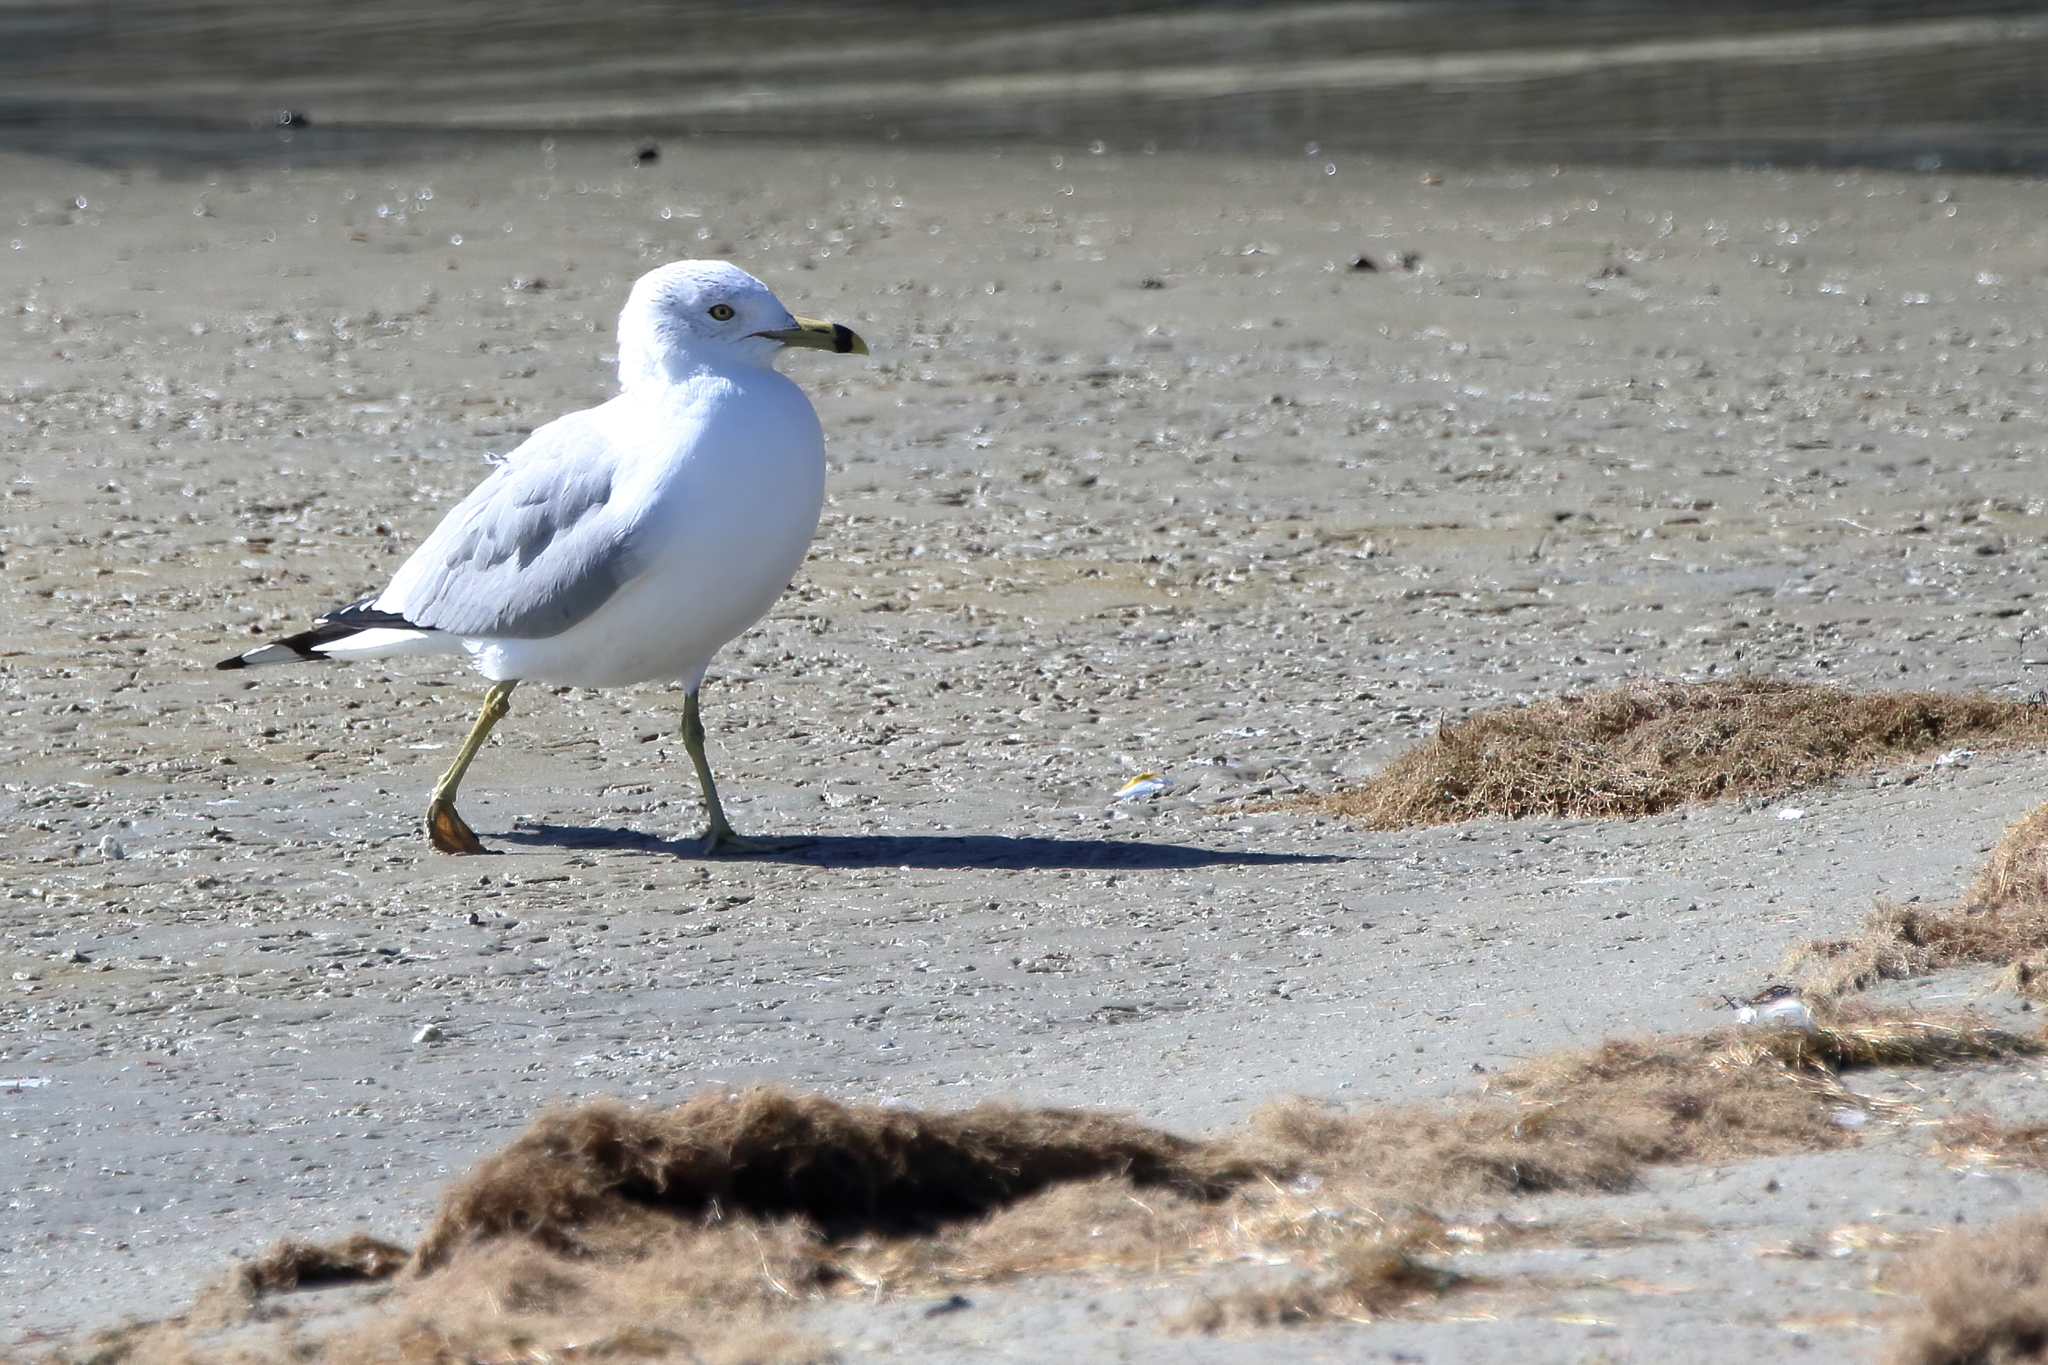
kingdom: Animalia
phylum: Chordata
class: Aves
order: Charadriiformes
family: Laridae
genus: Larus
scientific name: Larus delawarensis
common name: Ring-billed gull
